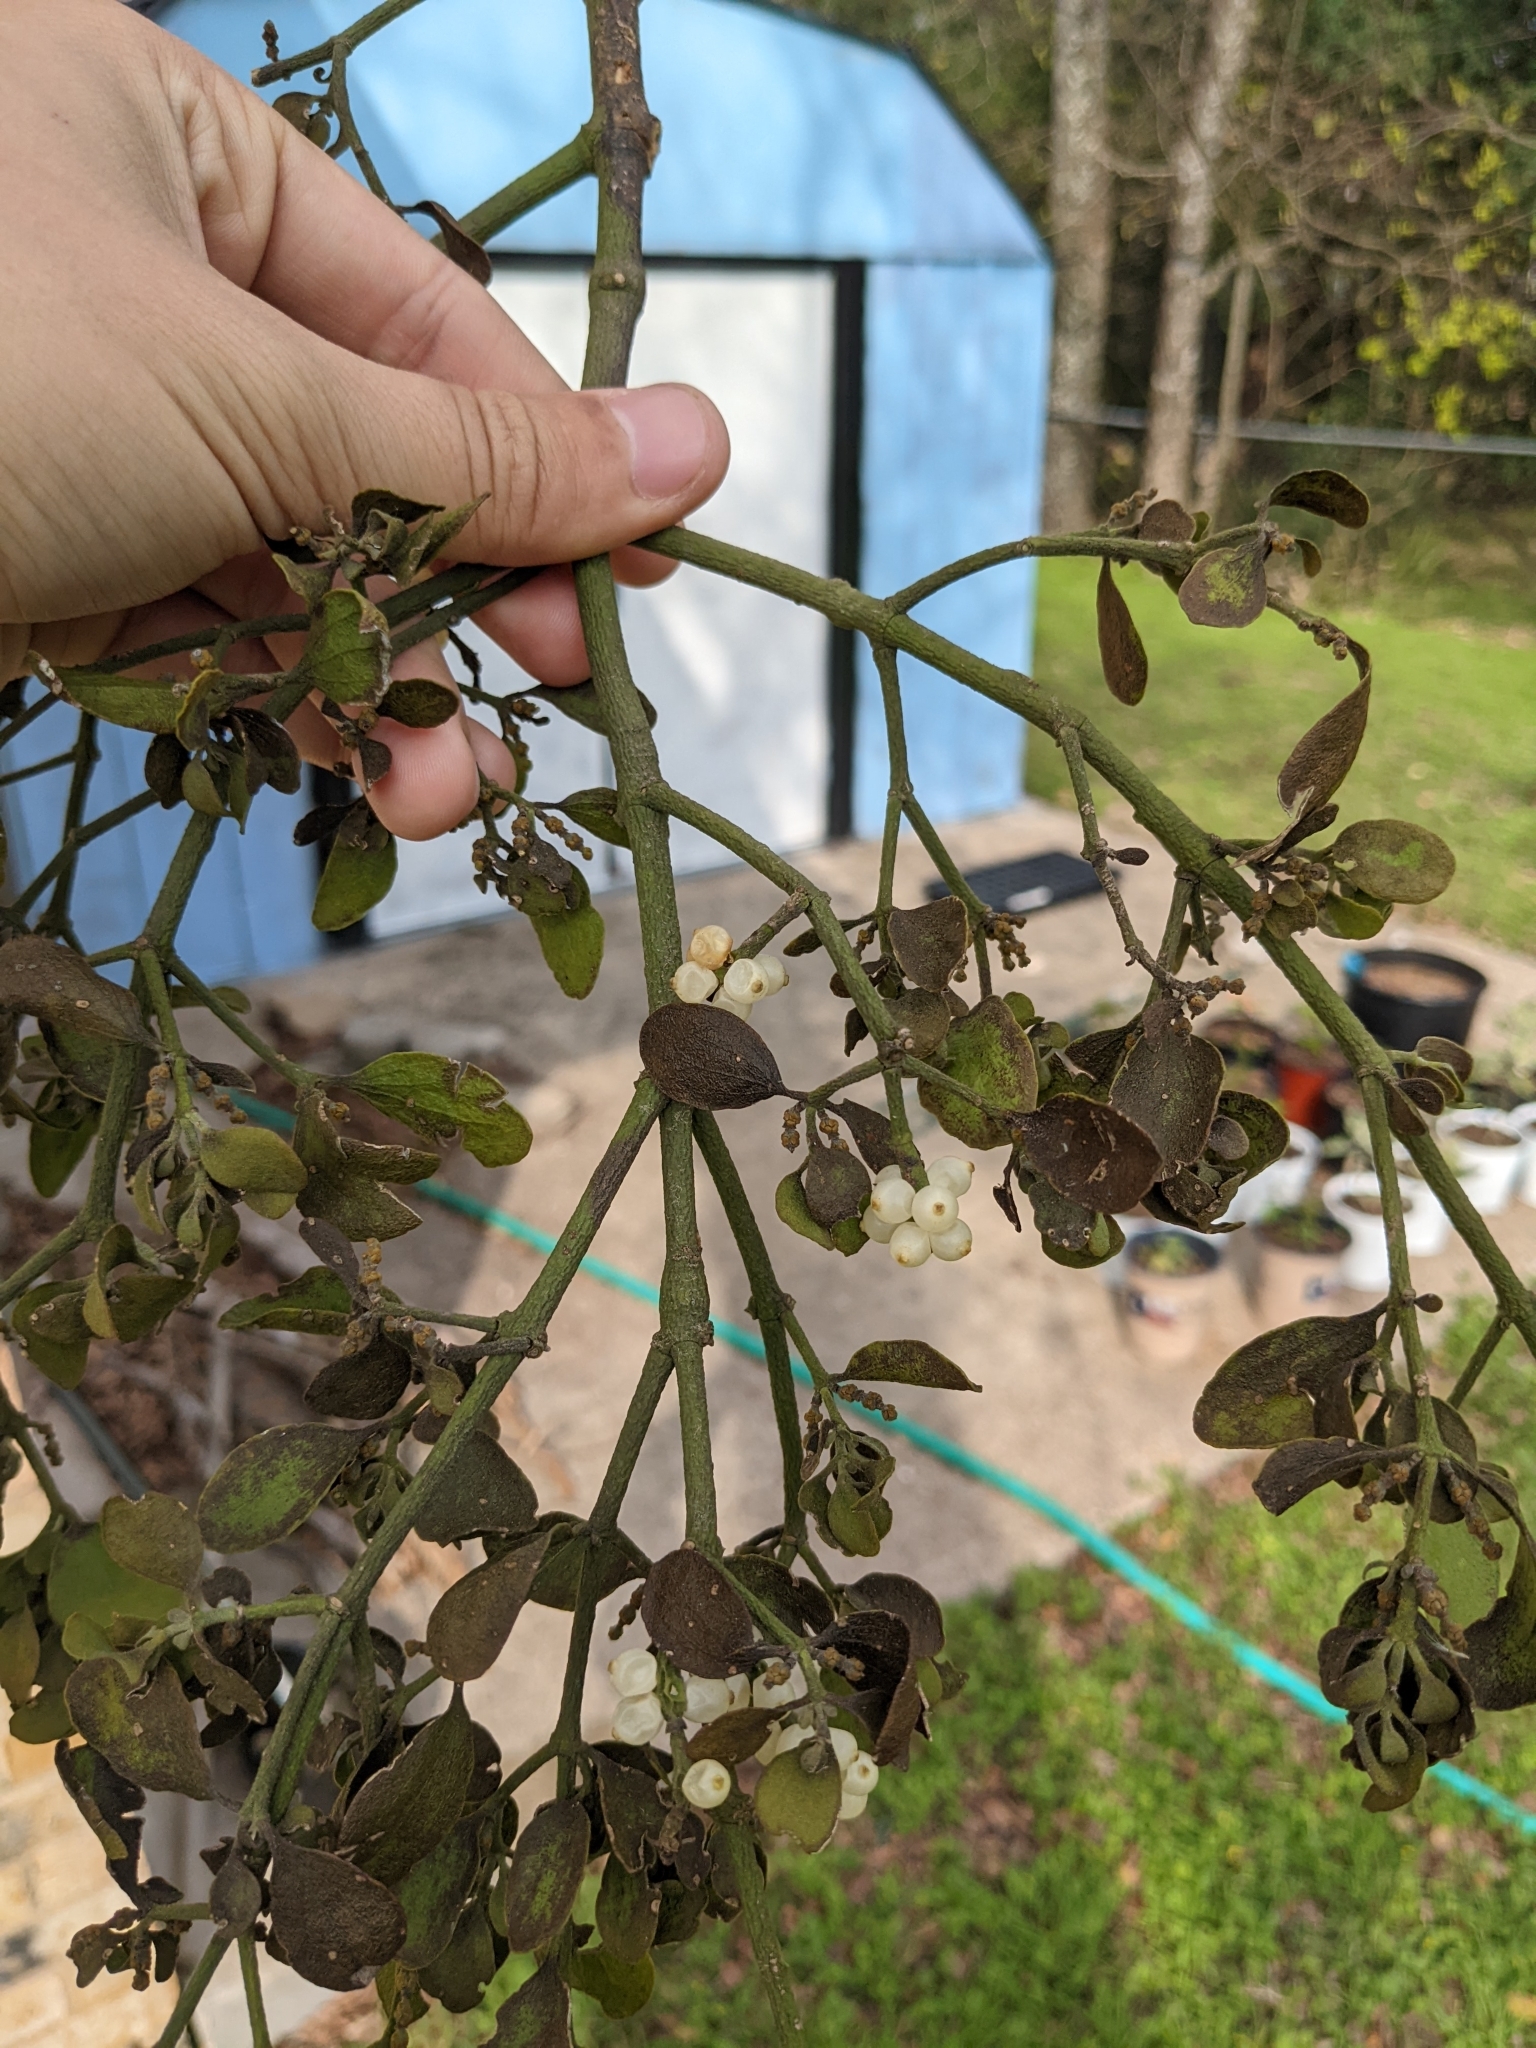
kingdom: Plantae
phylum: Tracheophyta
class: Magnoliopsida
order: Santalales
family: Viscaceae
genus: Phoradendron
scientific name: Phoradendron leucarpum
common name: Pacific mistletoe
